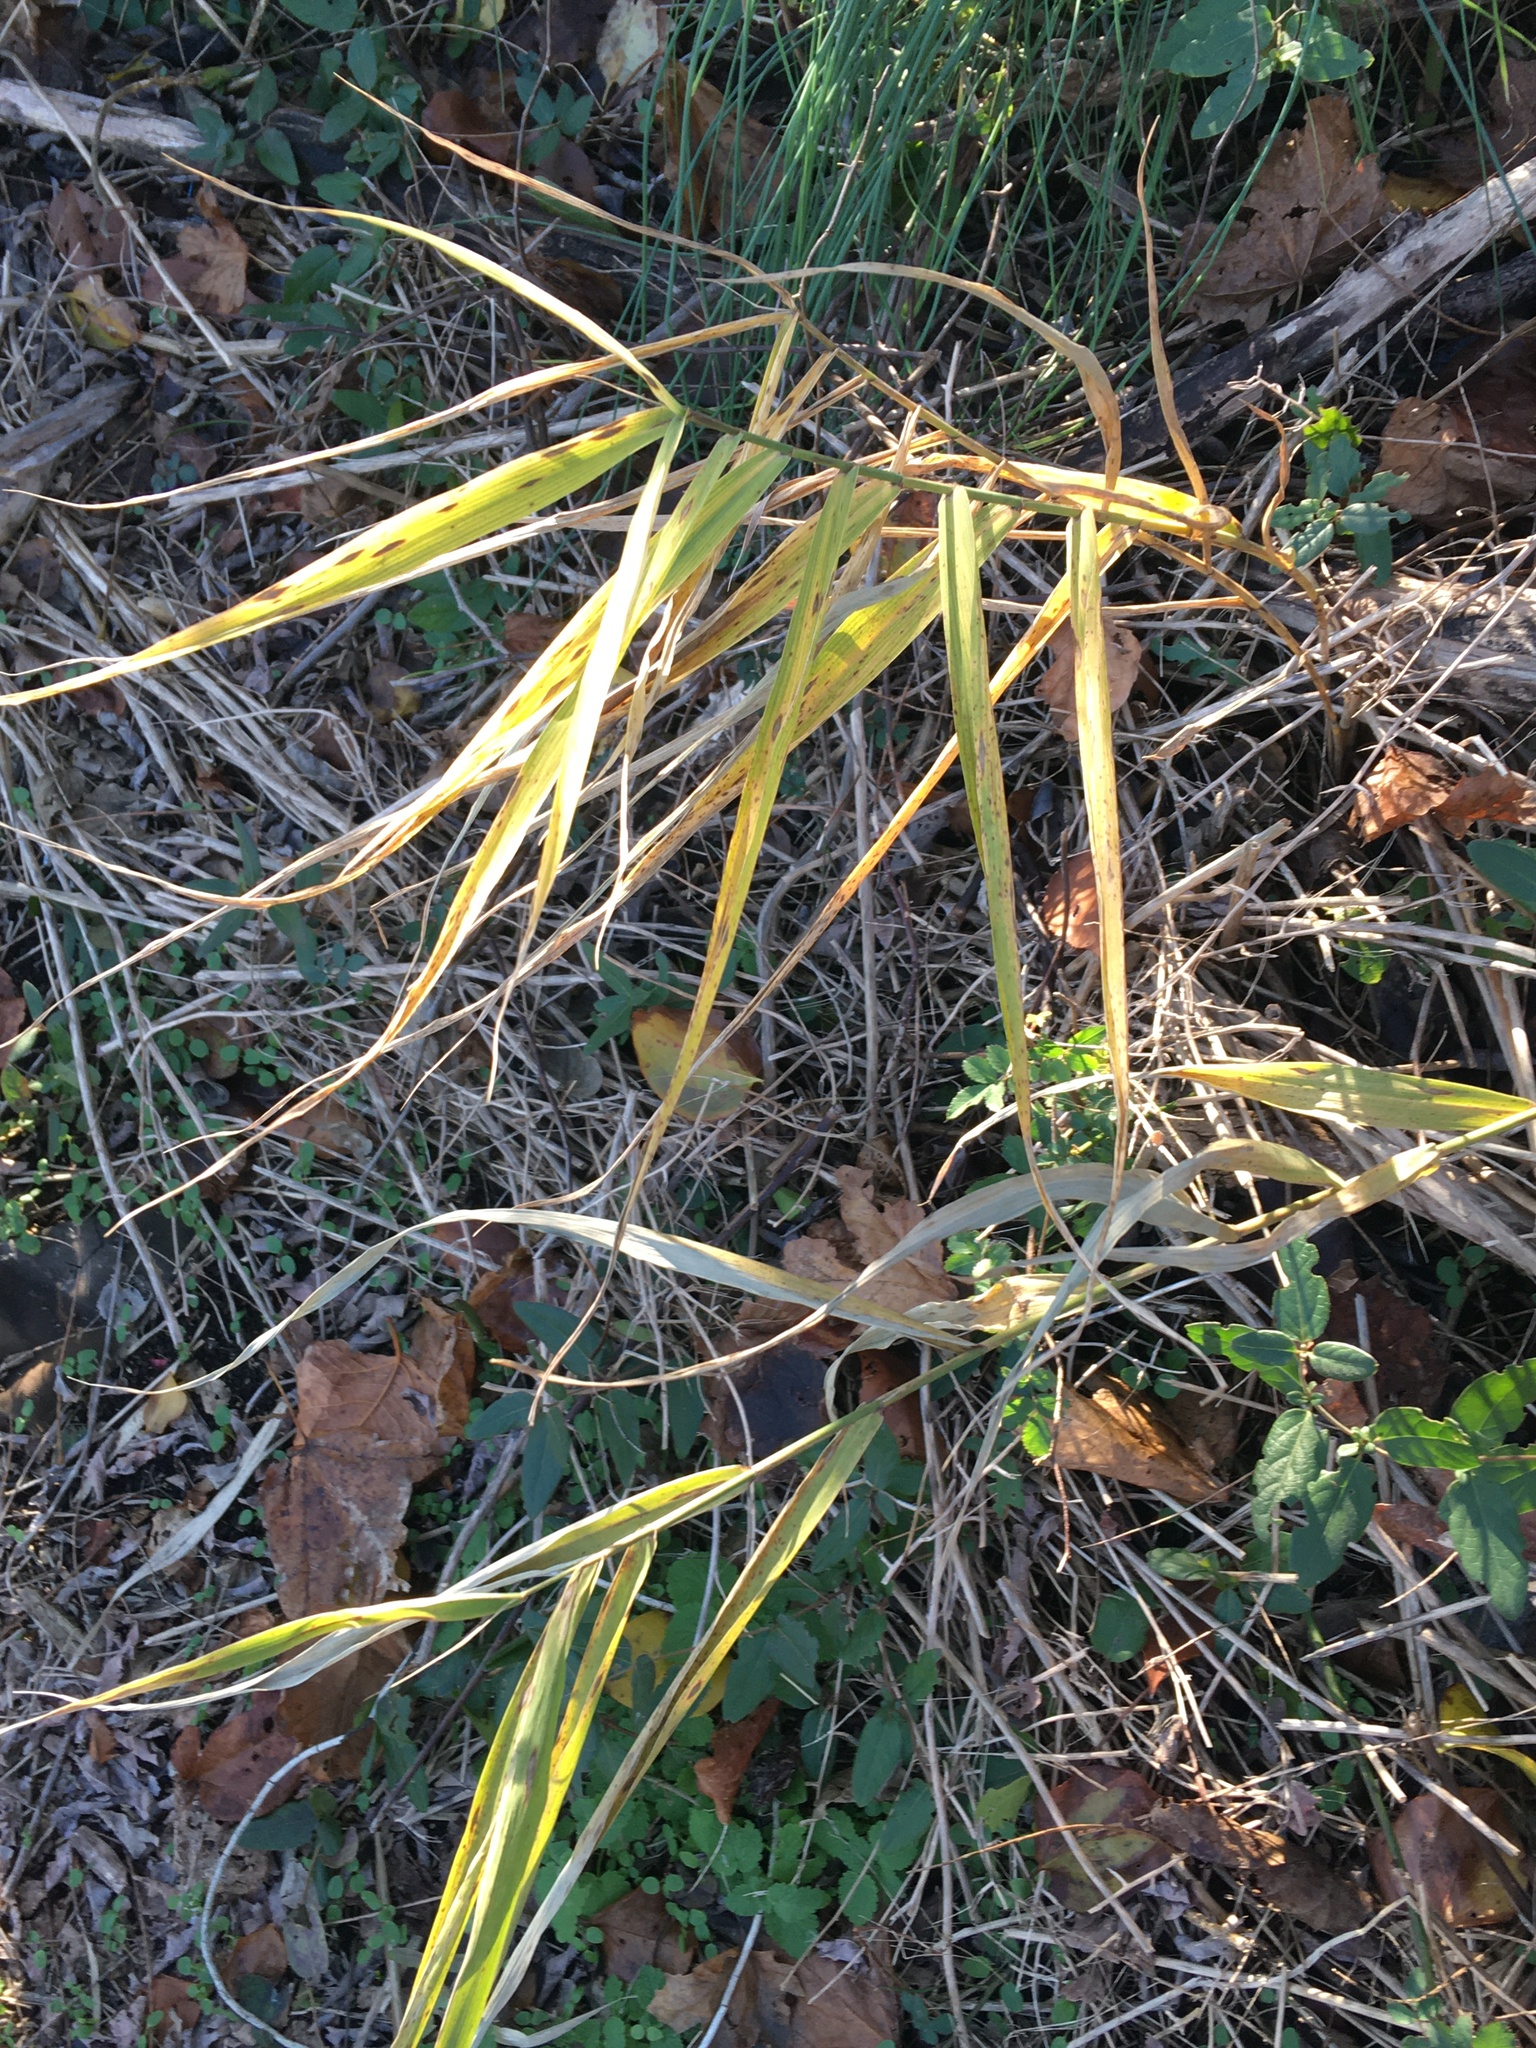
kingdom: Plantae
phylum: Tracheophyta
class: Liliopsida
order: Poales
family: Poaceae
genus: Phragmites
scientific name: Phragmites australis
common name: Common reed
